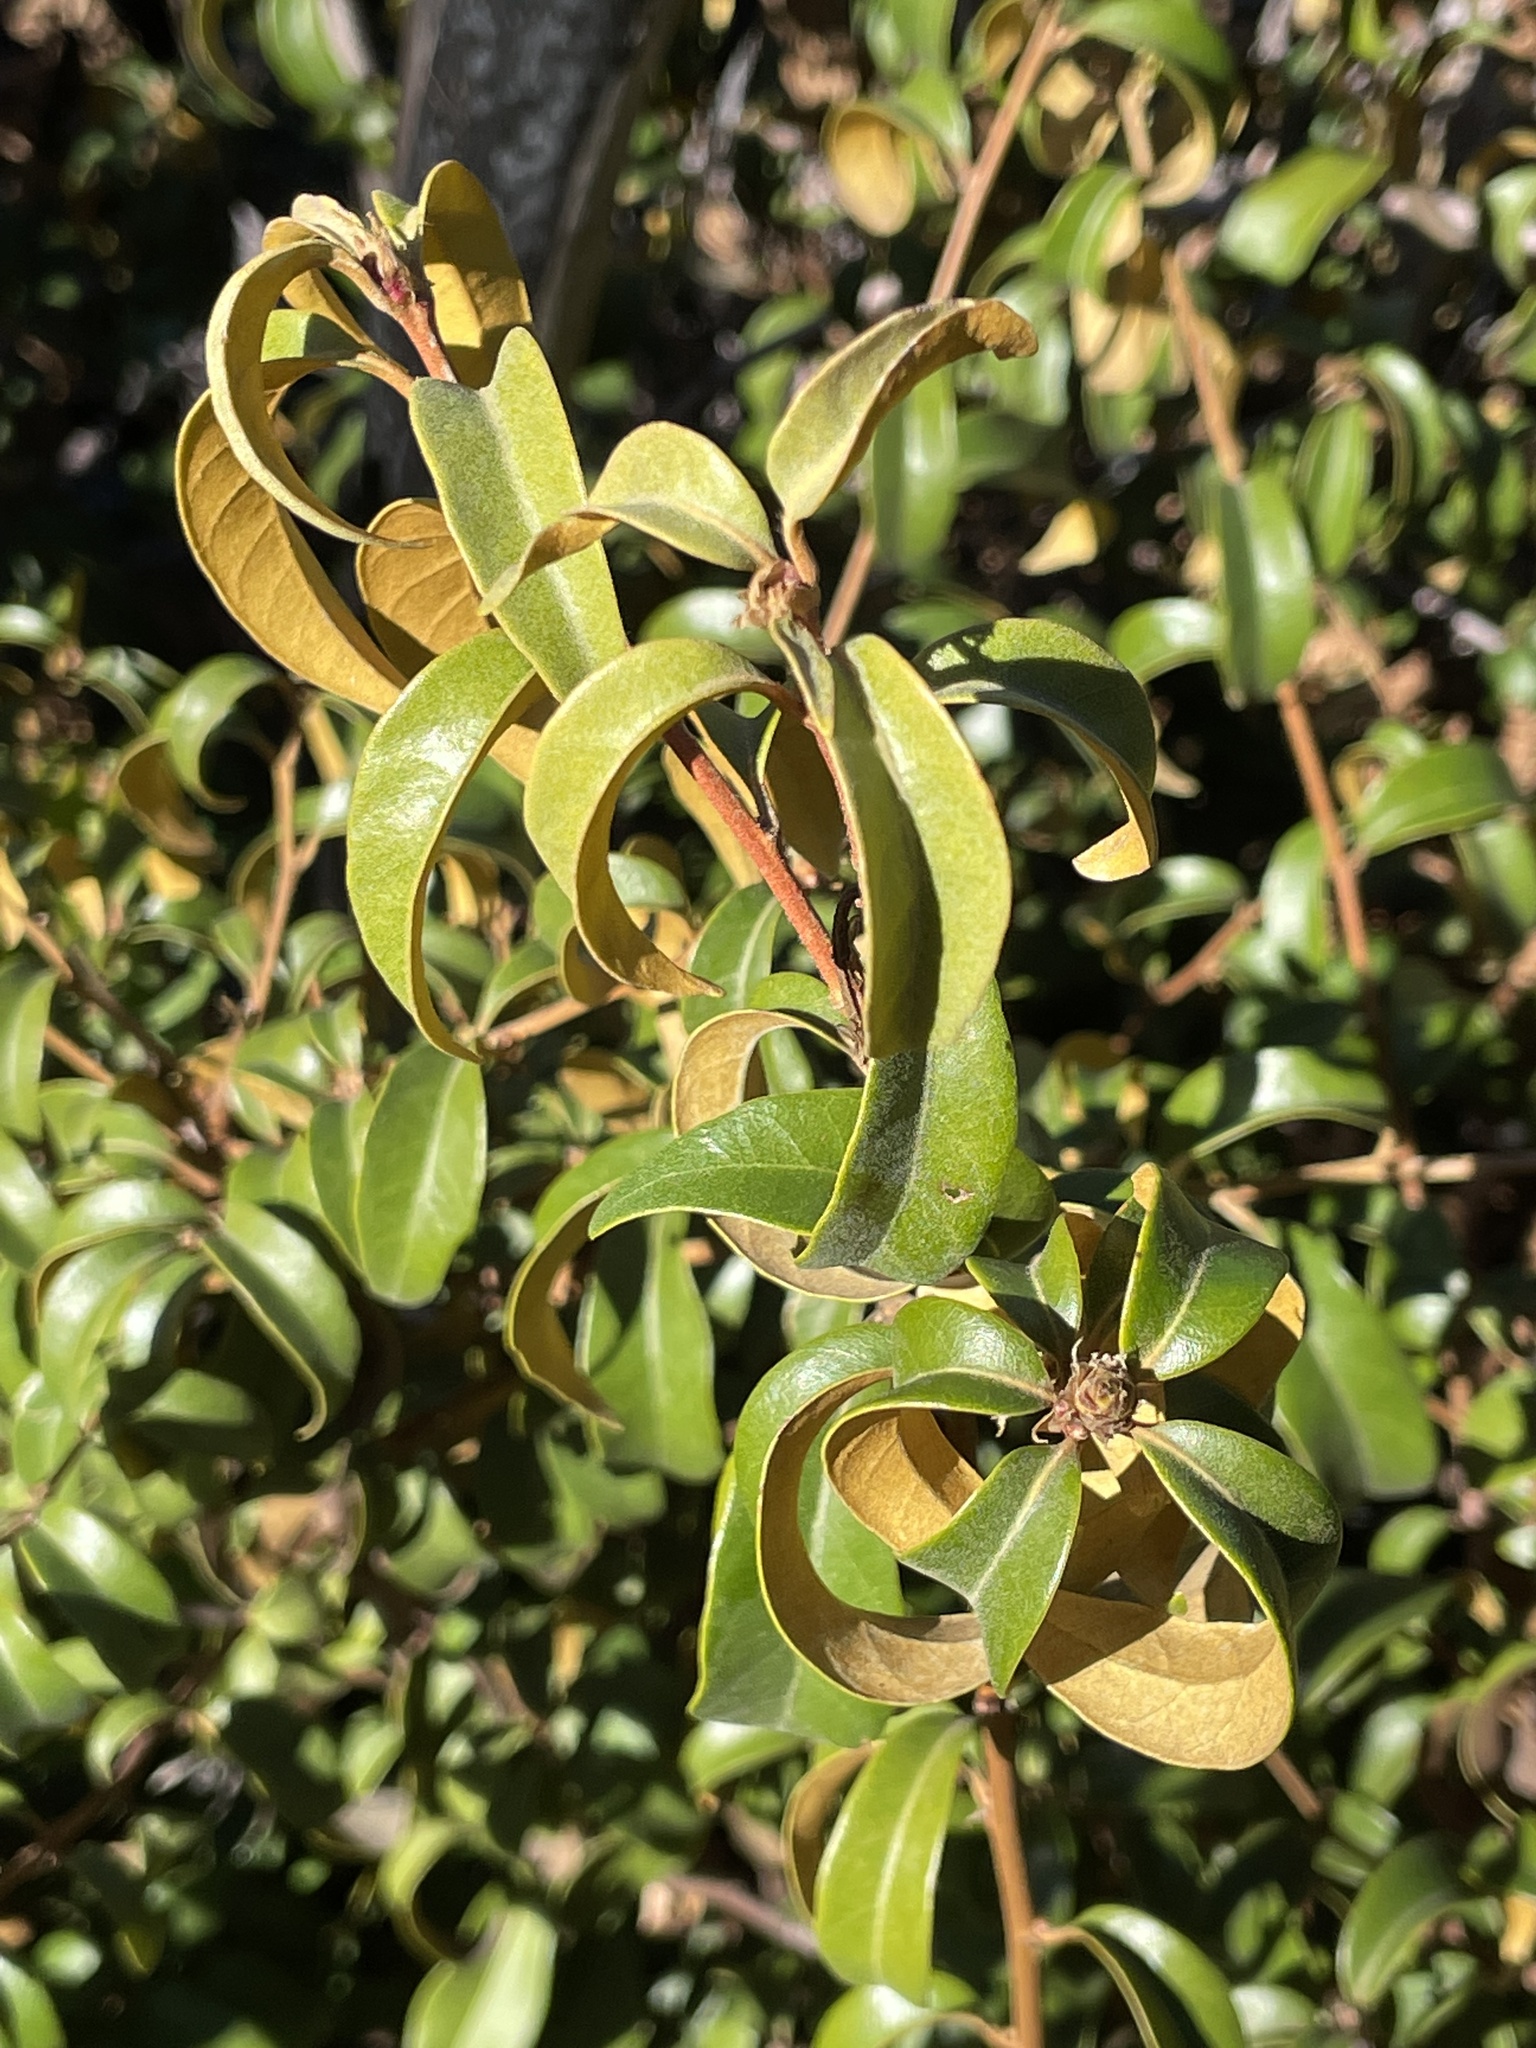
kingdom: Plantae
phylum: Tracheophyta
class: Magnoliopsida
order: Fagales
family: Fagaceae
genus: Chrysolepis
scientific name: Chrysolepis chrysophylla
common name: Giant chinquapin
